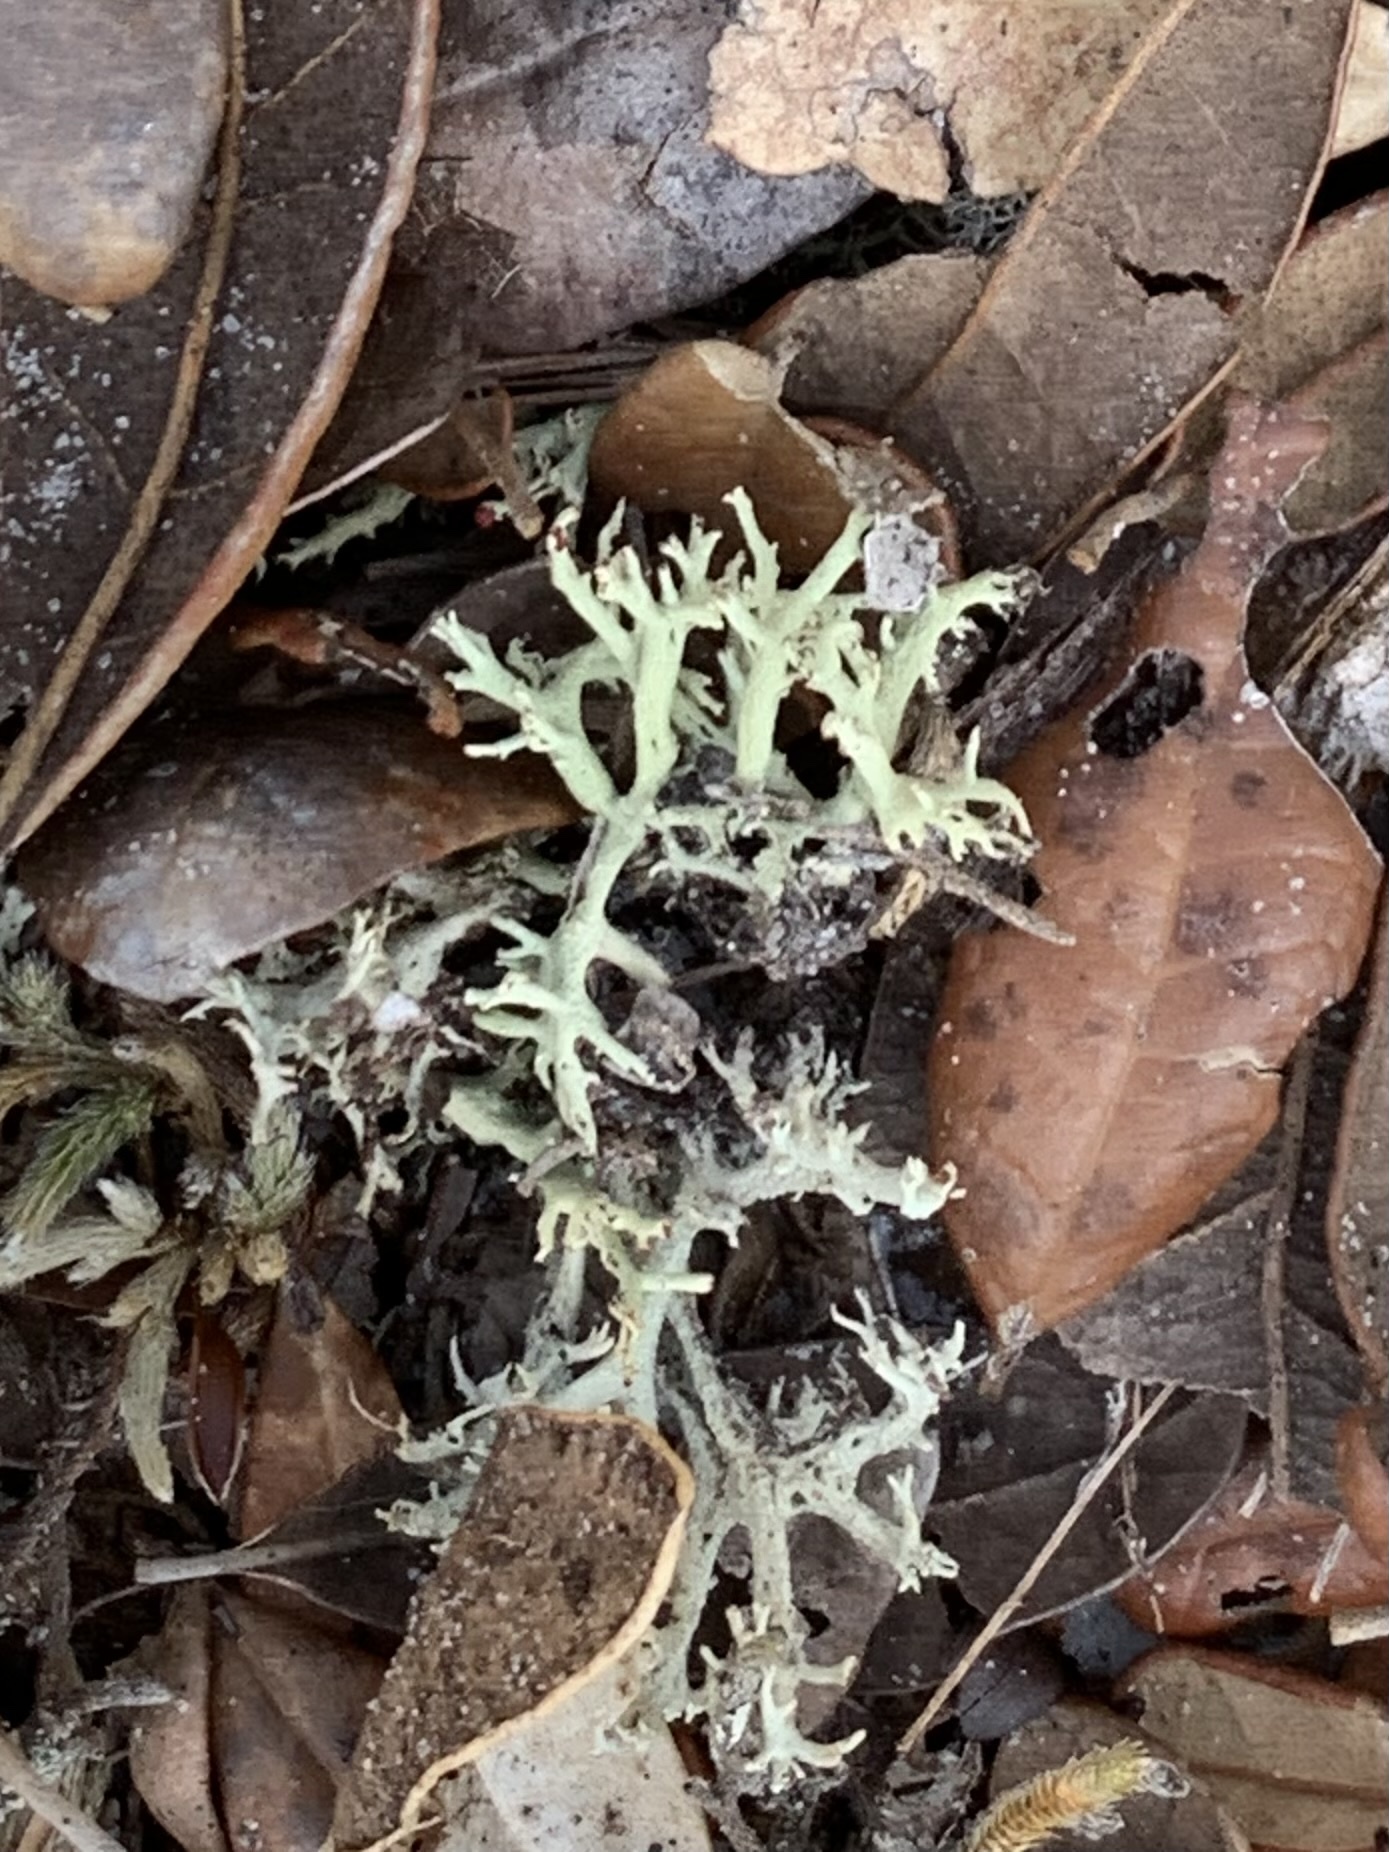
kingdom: Fungi
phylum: Ascomycota
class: Lecanoromycetes
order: Lecanorales
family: Cladoniaceae
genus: Cladonia
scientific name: Cladonia leporina
